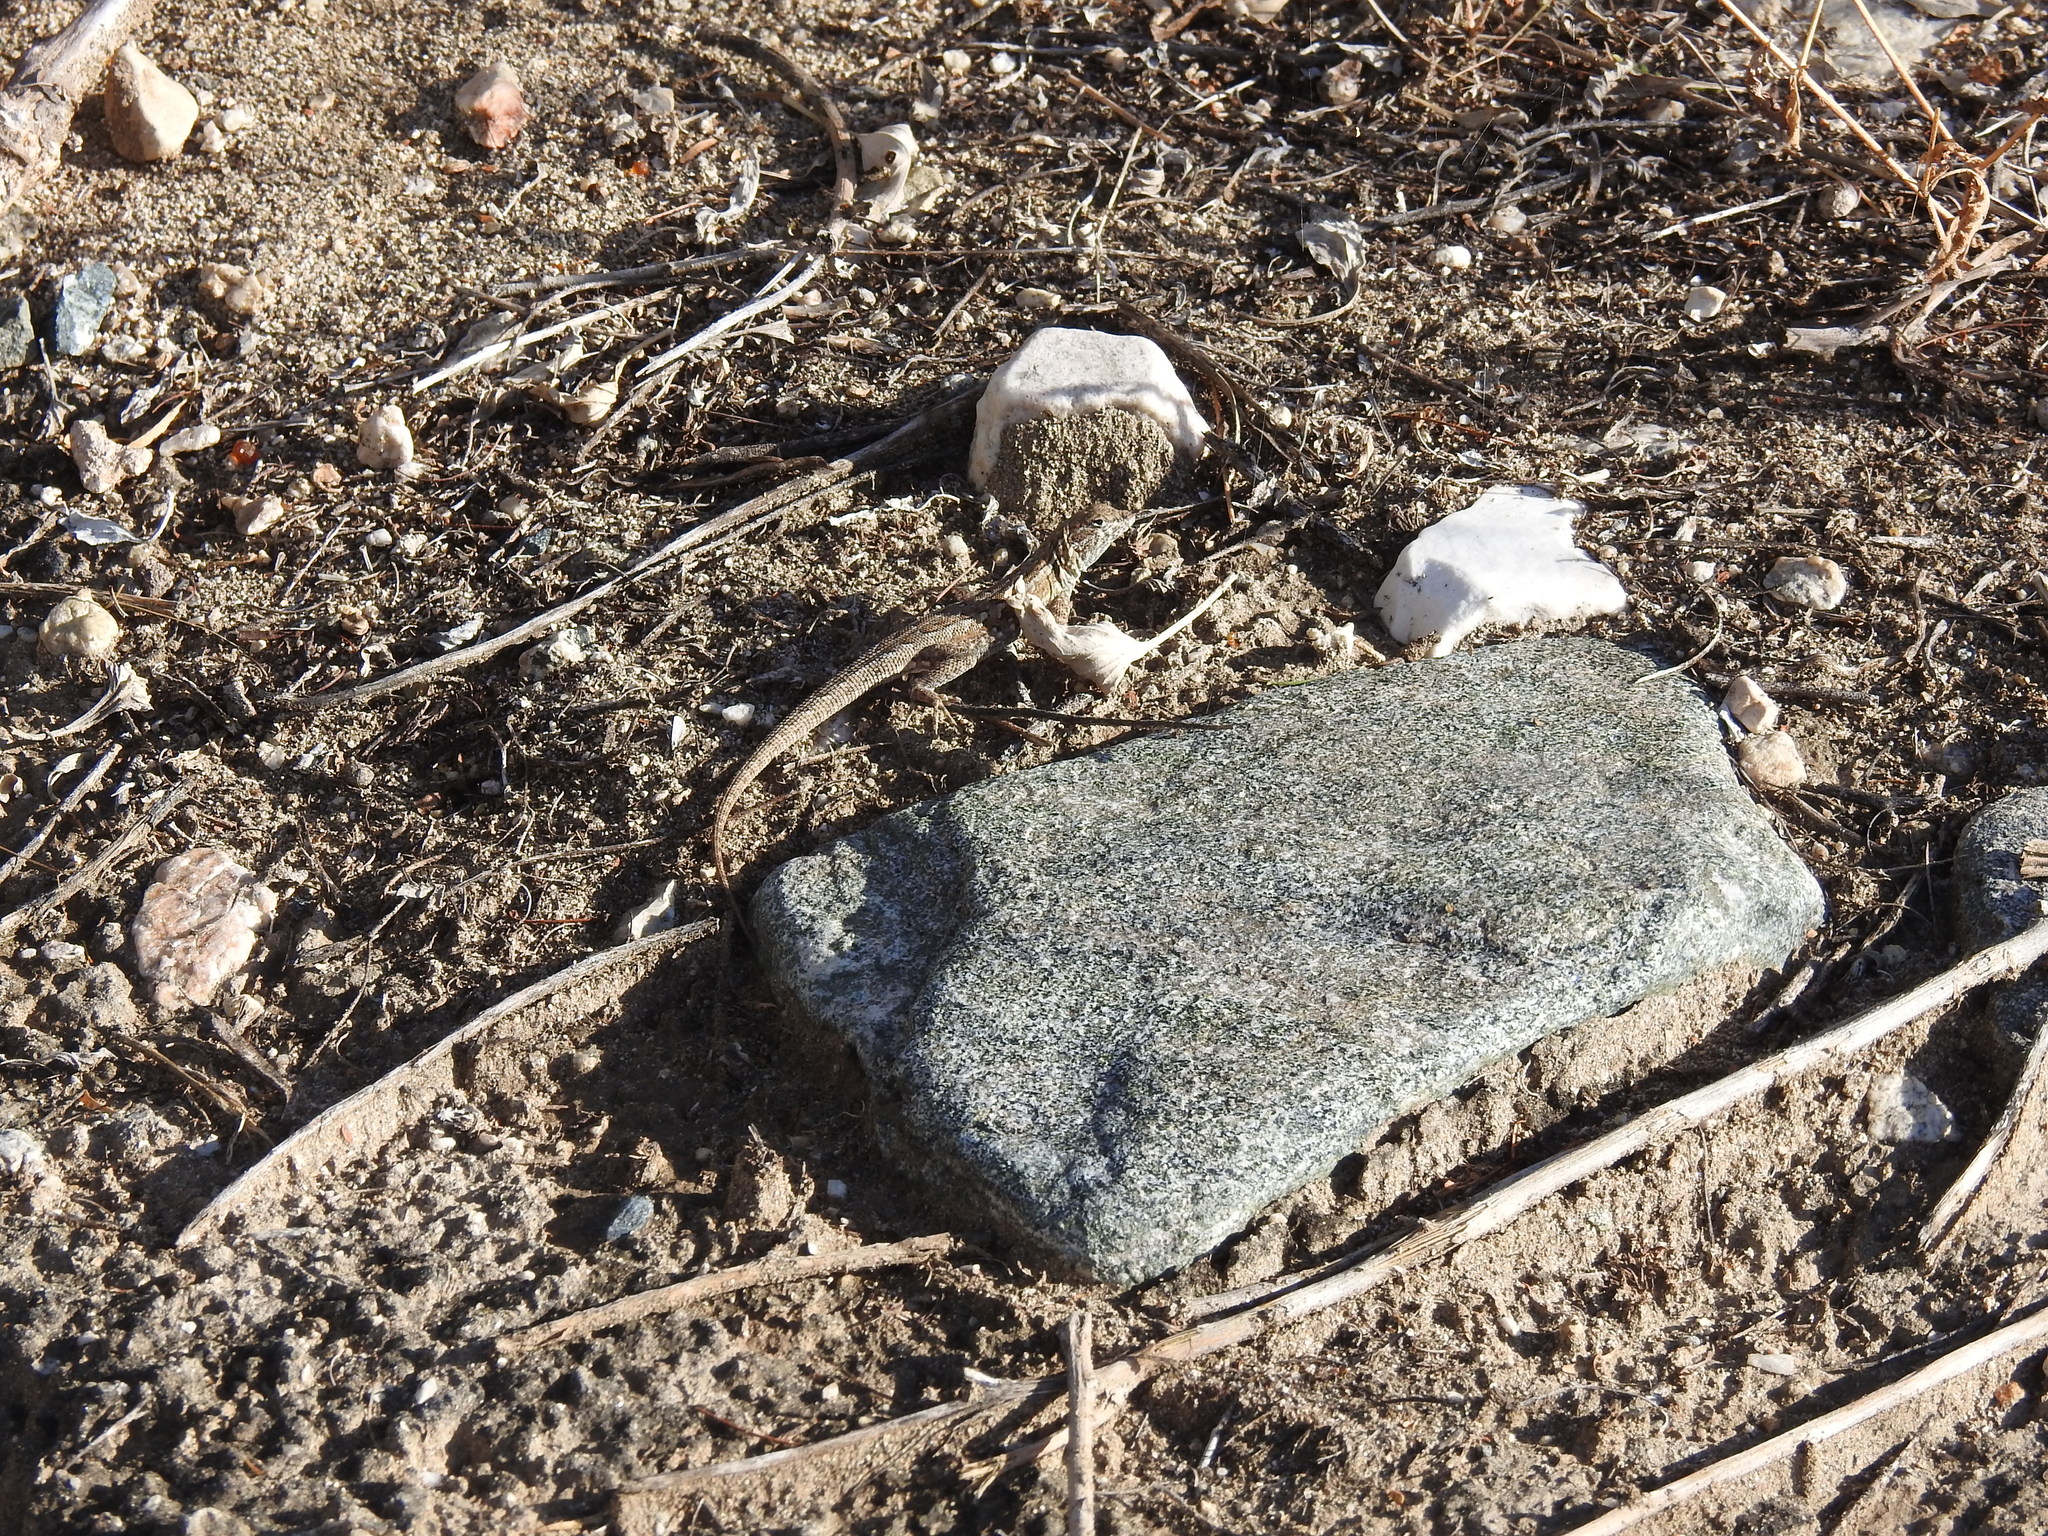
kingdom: Animalia
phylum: Chordata
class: Squamata
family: Phrynosomatidae
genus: Uta
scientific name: Uta stansburiana
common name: Side-blotched lizard
